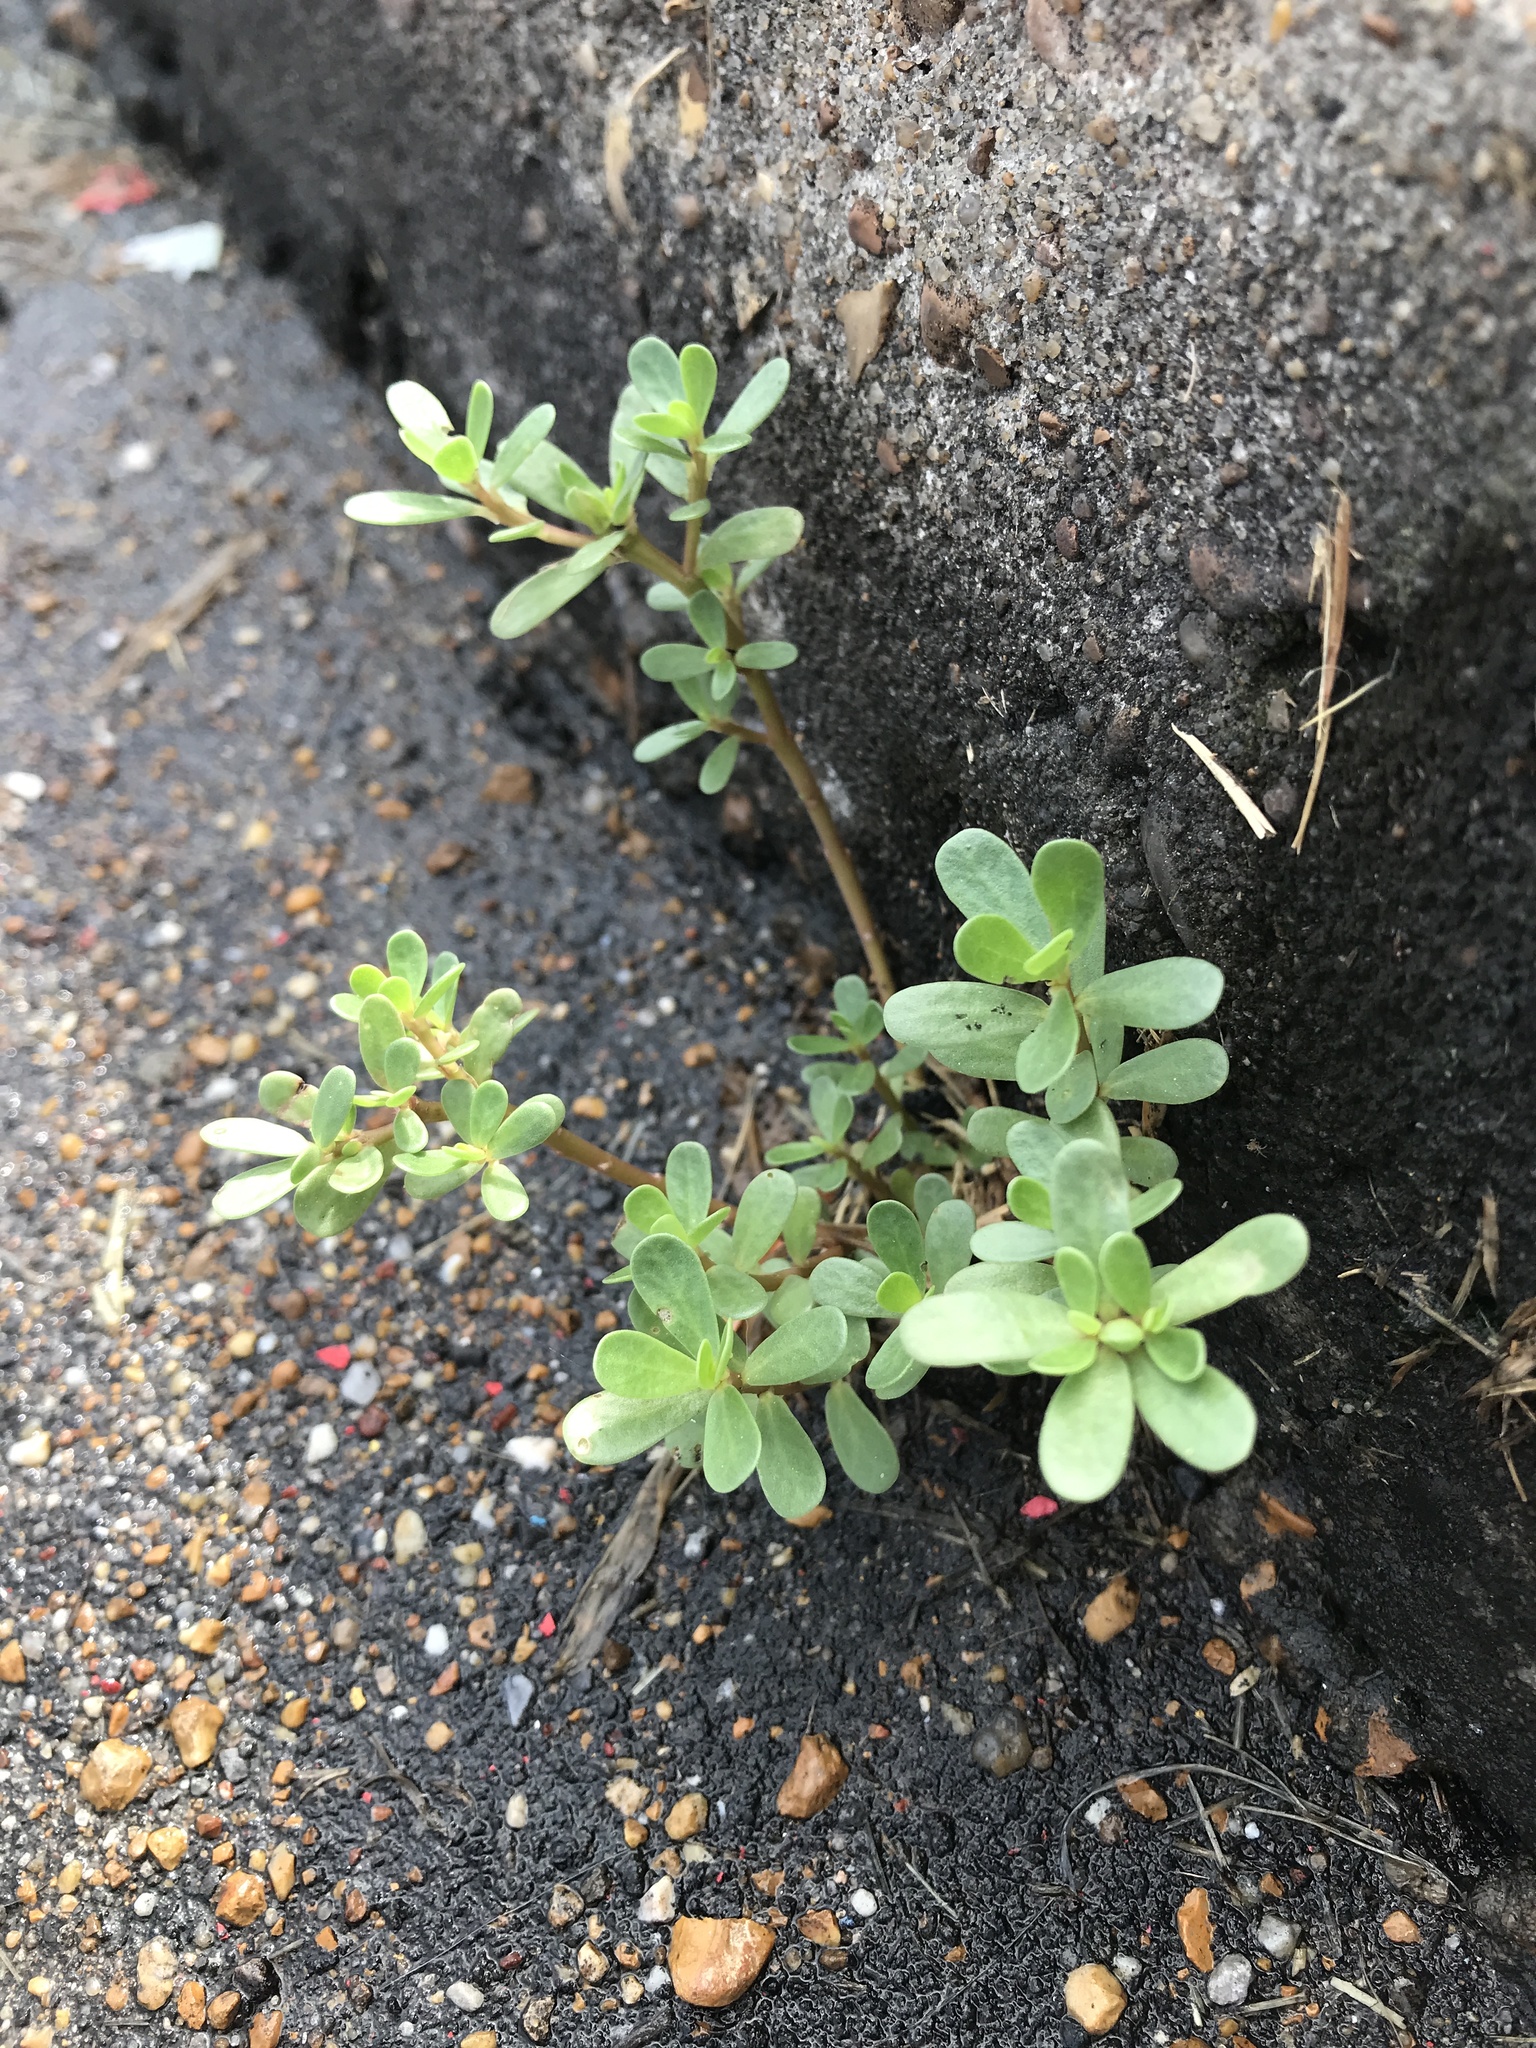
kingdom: Plantae
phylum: Tracheophyta
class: Magnoliopsida
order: Caryophyllales
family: Portulacaceae
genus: Portulaca
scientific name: Portulaca oleracea
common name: Common purslane
